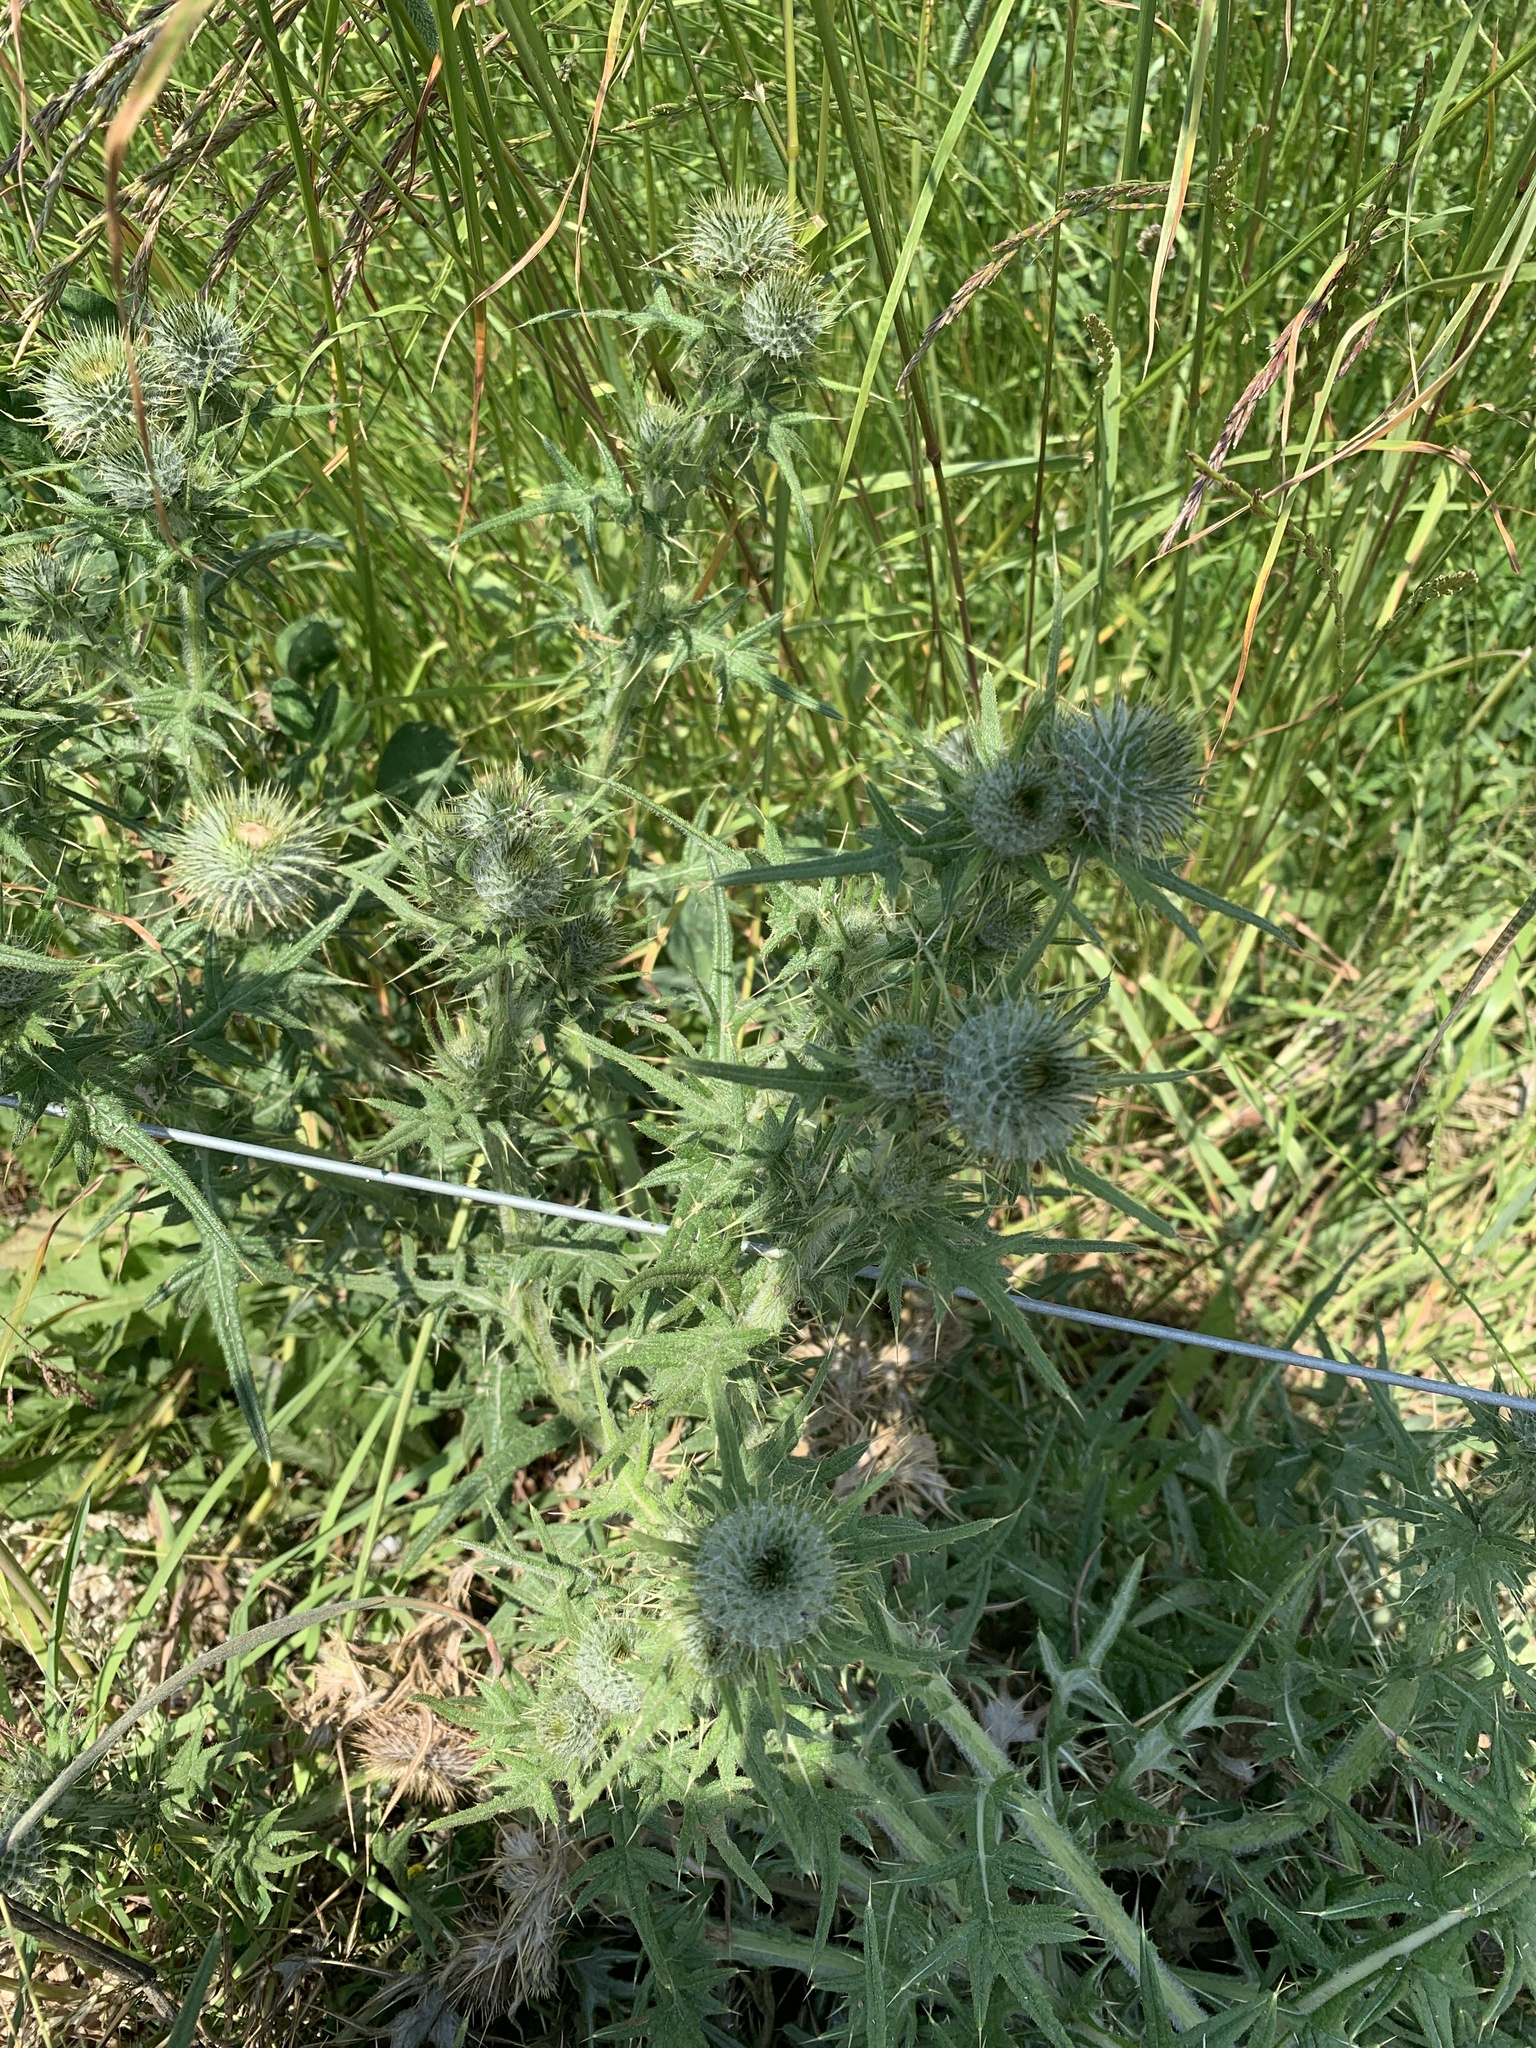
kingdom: Plantae
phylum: Tracheophyta
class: Magnoliopsida
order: Asterales
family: Asteraceae
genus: Cirsium
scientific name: Cirsium vulgare
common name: Bull thistle
